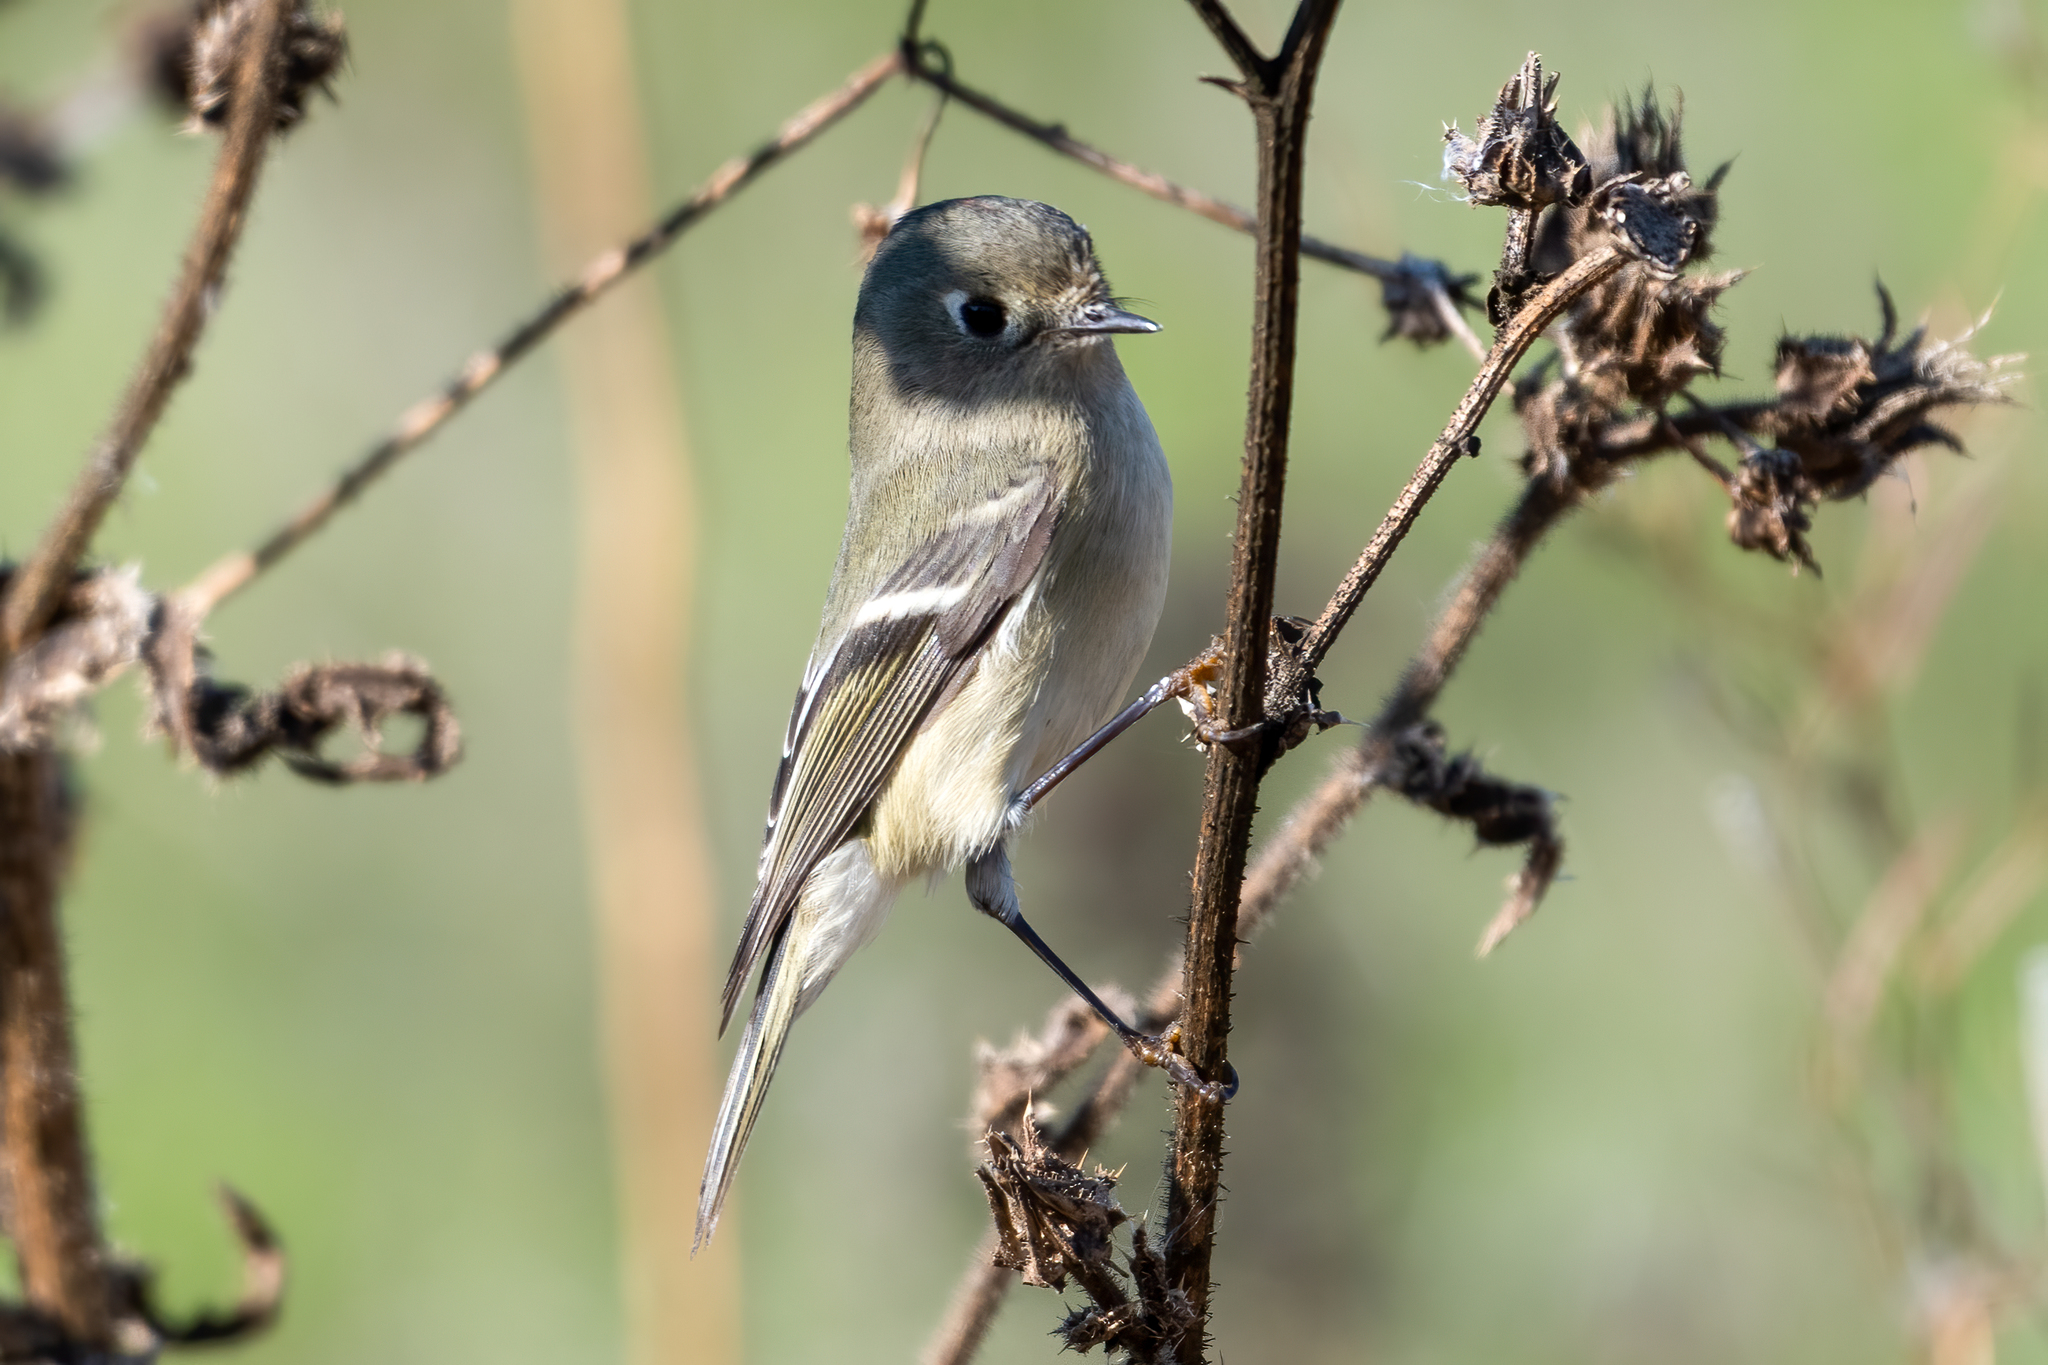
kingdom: Animalia
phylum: Chordata
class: Aves
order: Passeriformes
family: Regulidae
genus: Regulus
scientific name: Regulus calendula
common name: Ruby-crowned kinglet
